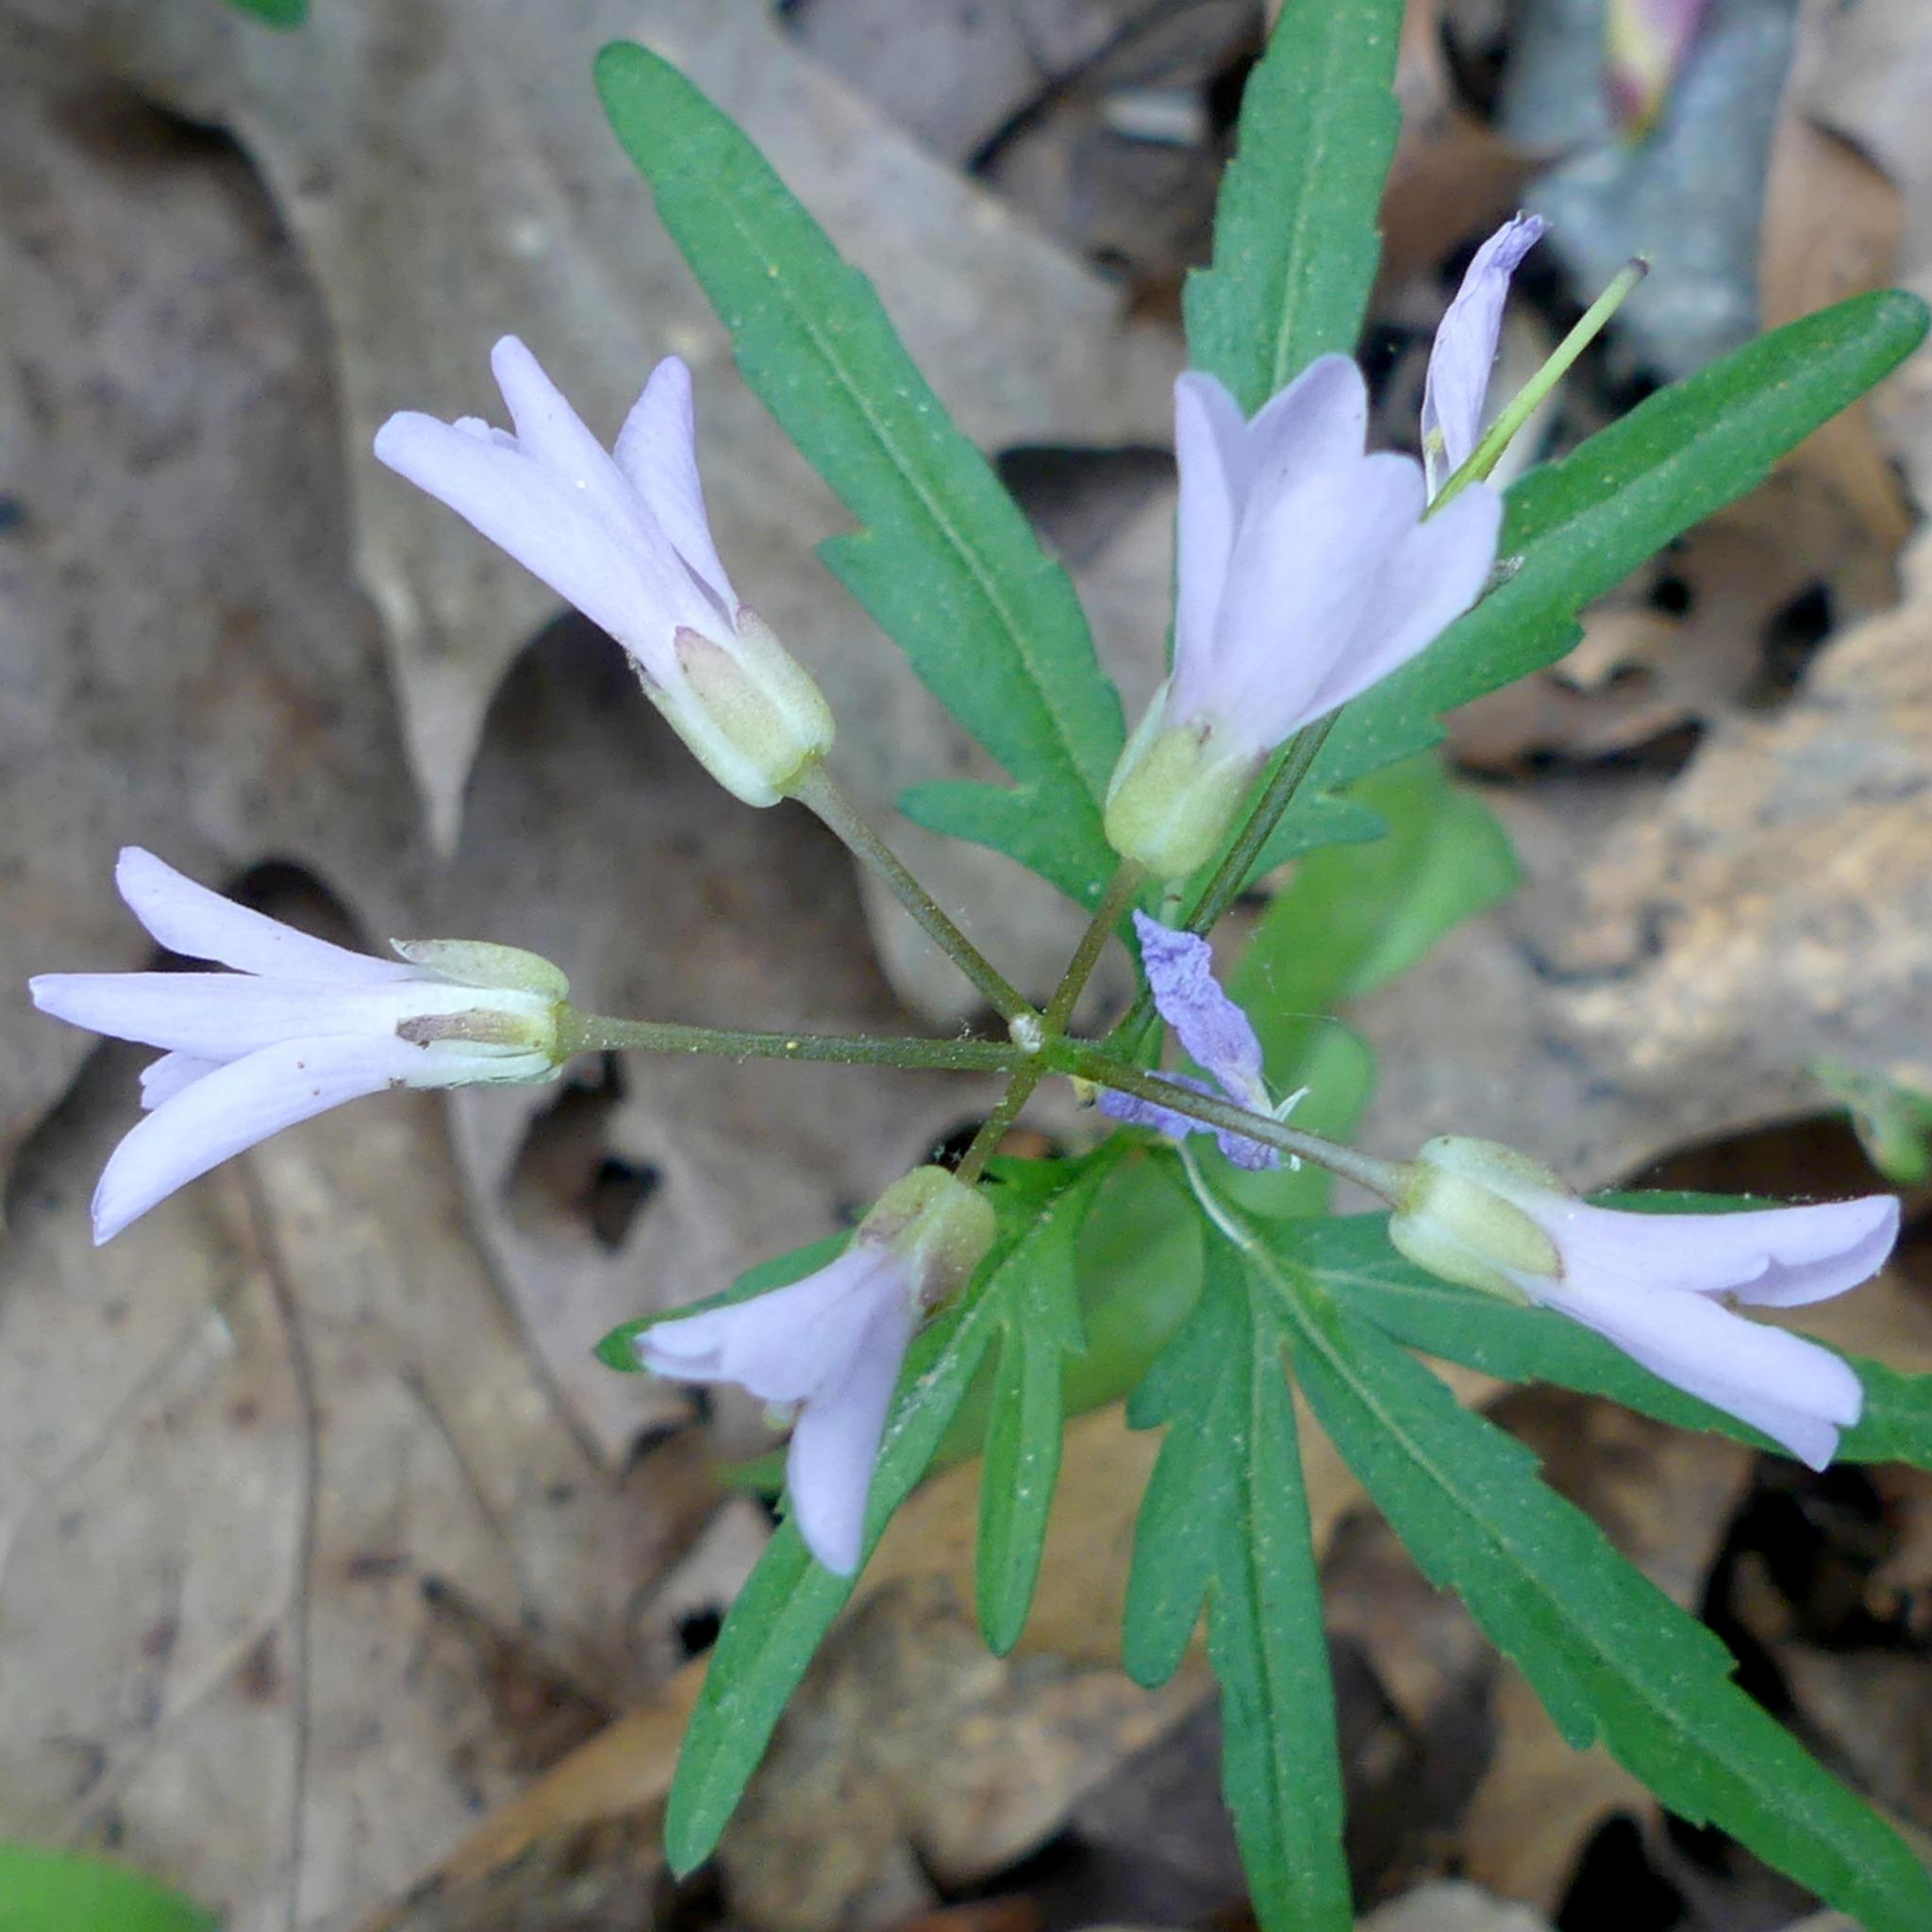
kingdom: Plantae
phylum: Tracheophyta
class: Magnoliopsida
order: Brassicales
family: Brassicaceae
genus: Cardamine
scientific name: Cardamine concatenata
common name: Cut-leaf toothcup
